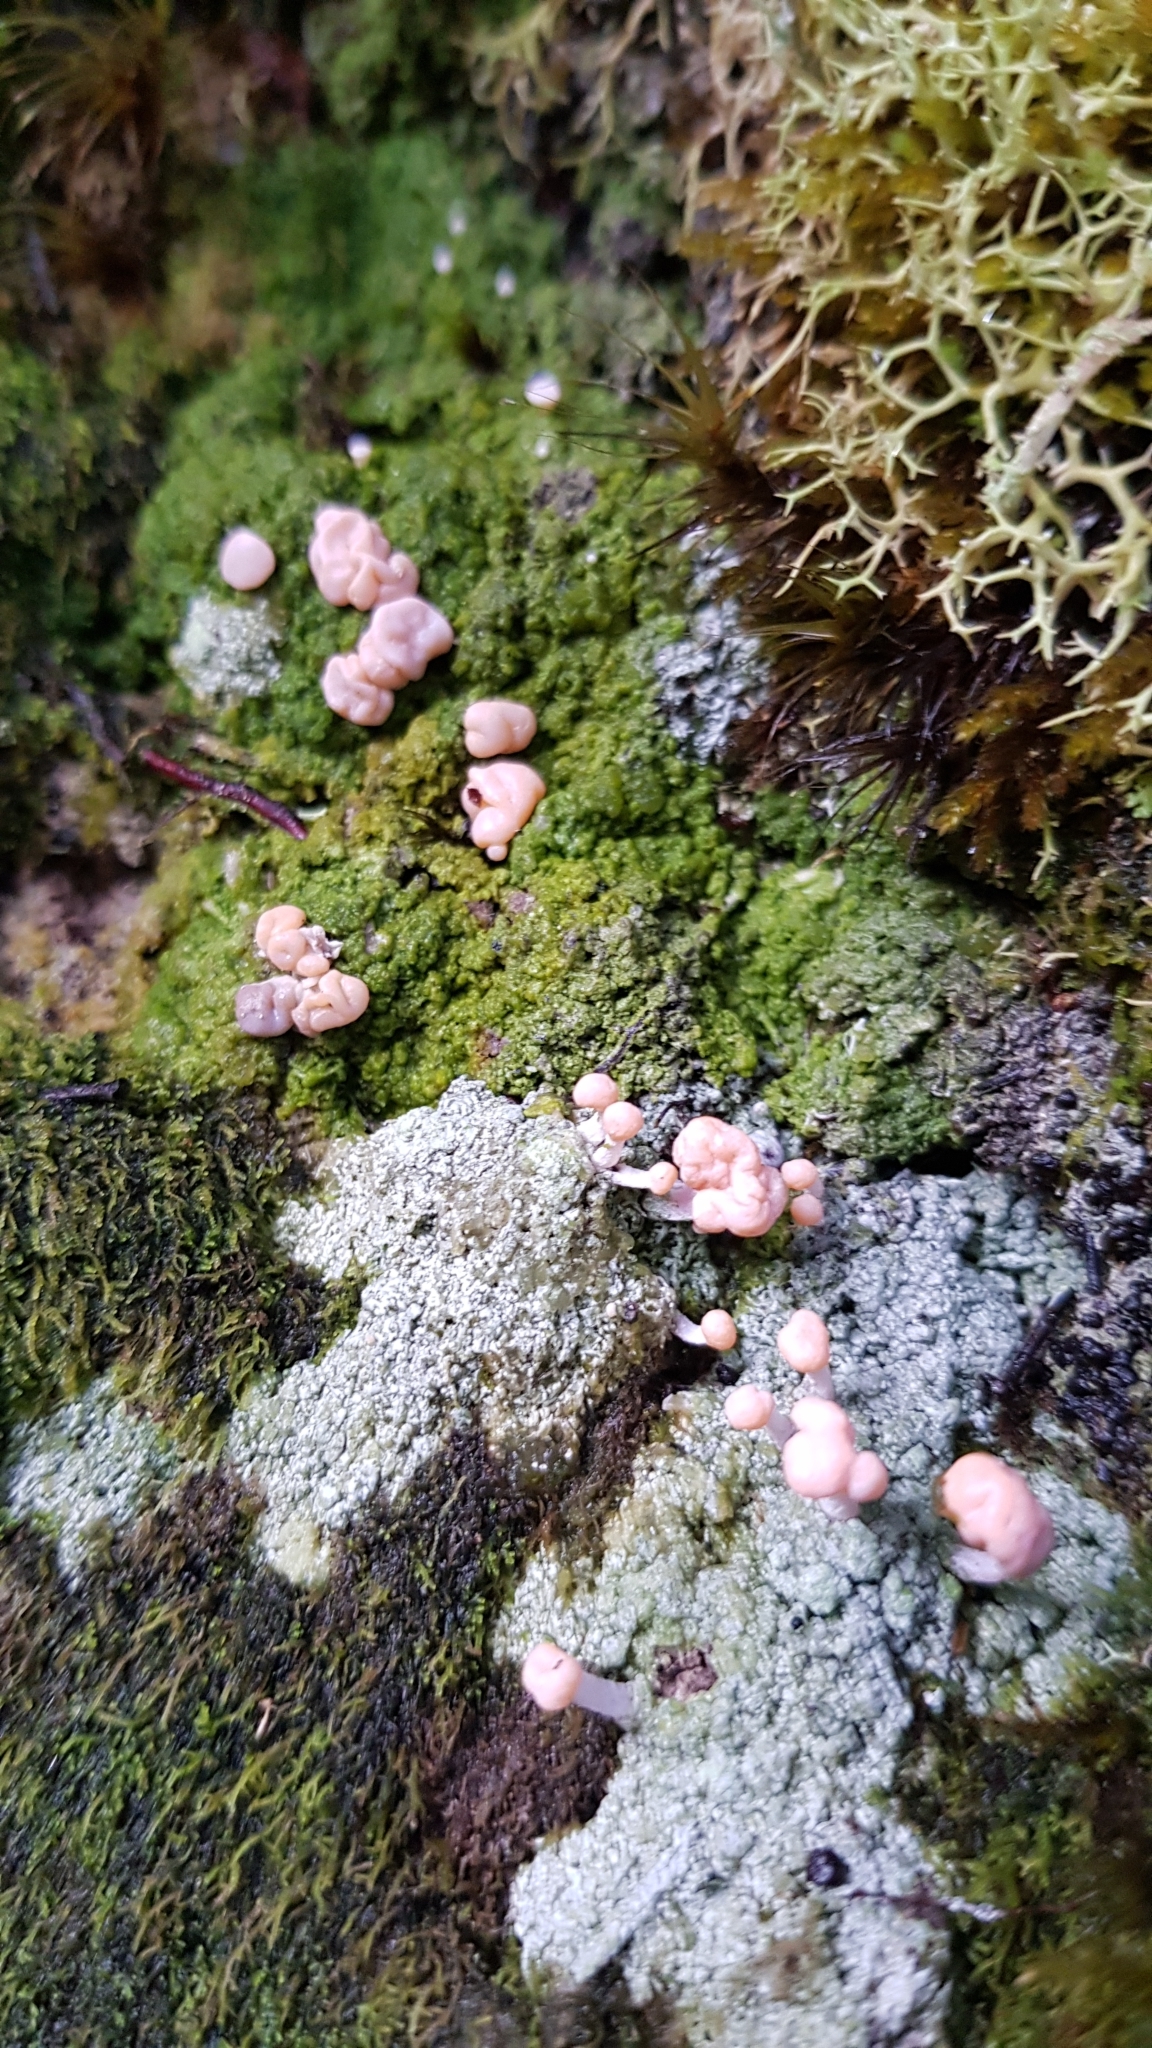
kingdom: Fungi
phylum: Ascomycota
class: Lecanoromycetes
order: Pertusariales
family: Icmadophilaceae
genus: Dibaeis
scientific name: Dibaeis arcuata
